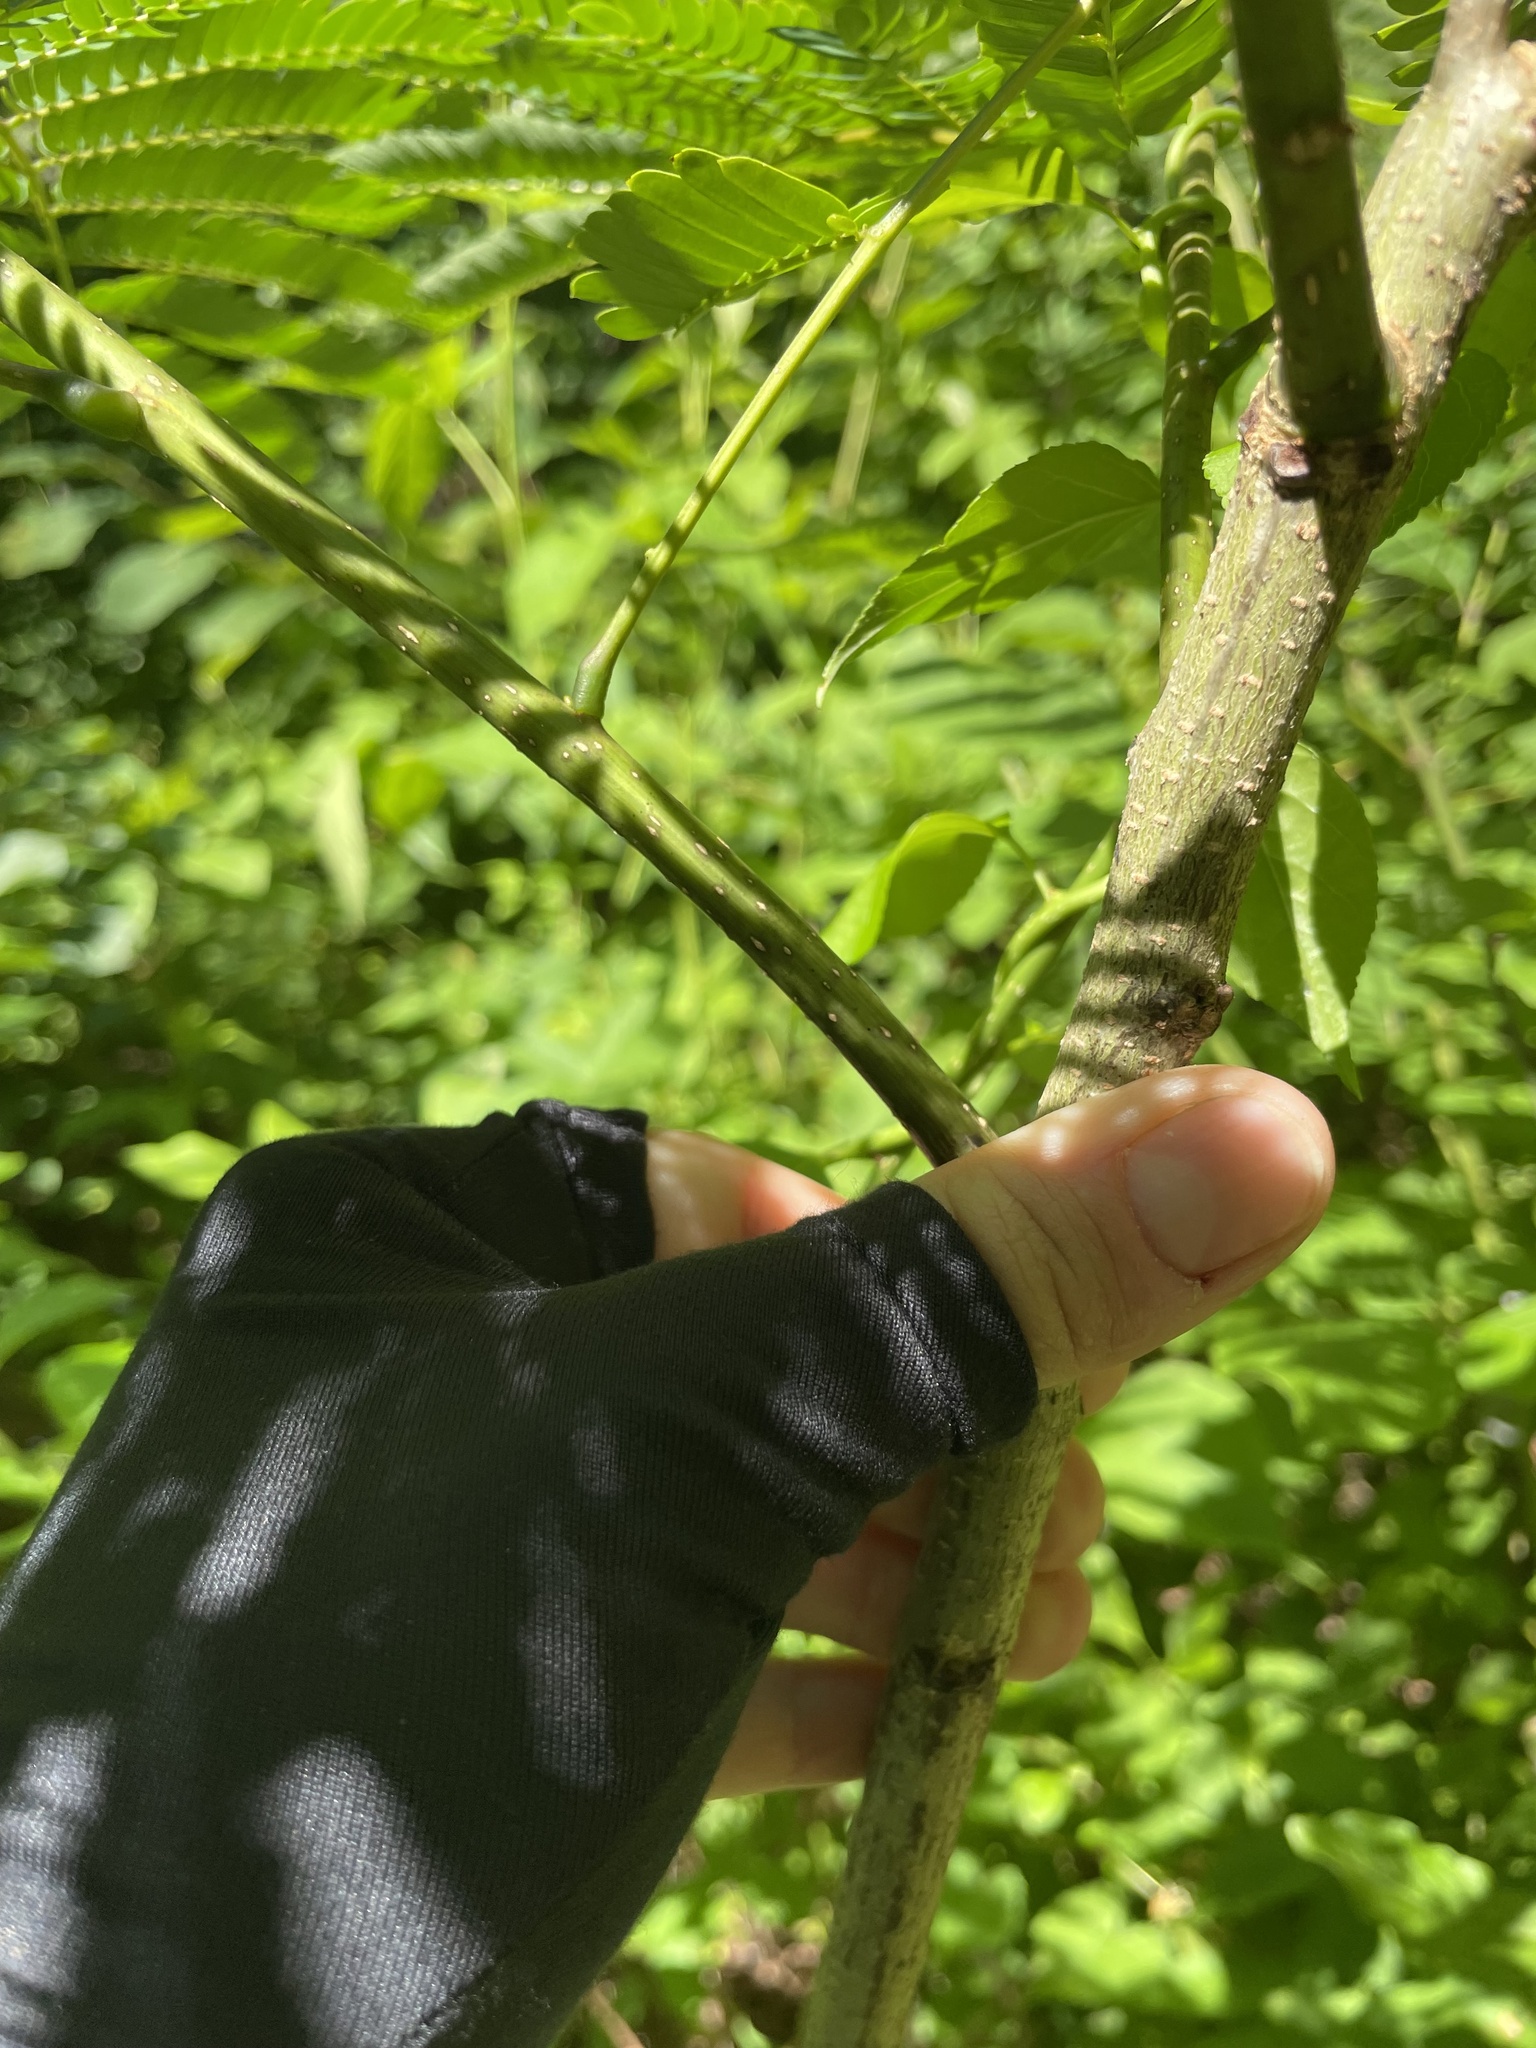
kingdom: Plantae
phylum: Tracheophyta
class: Magnoliopsida
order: Fabales
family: Fabaceae
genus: Albizia
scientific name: Albizia julibrissin
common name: Silktree
